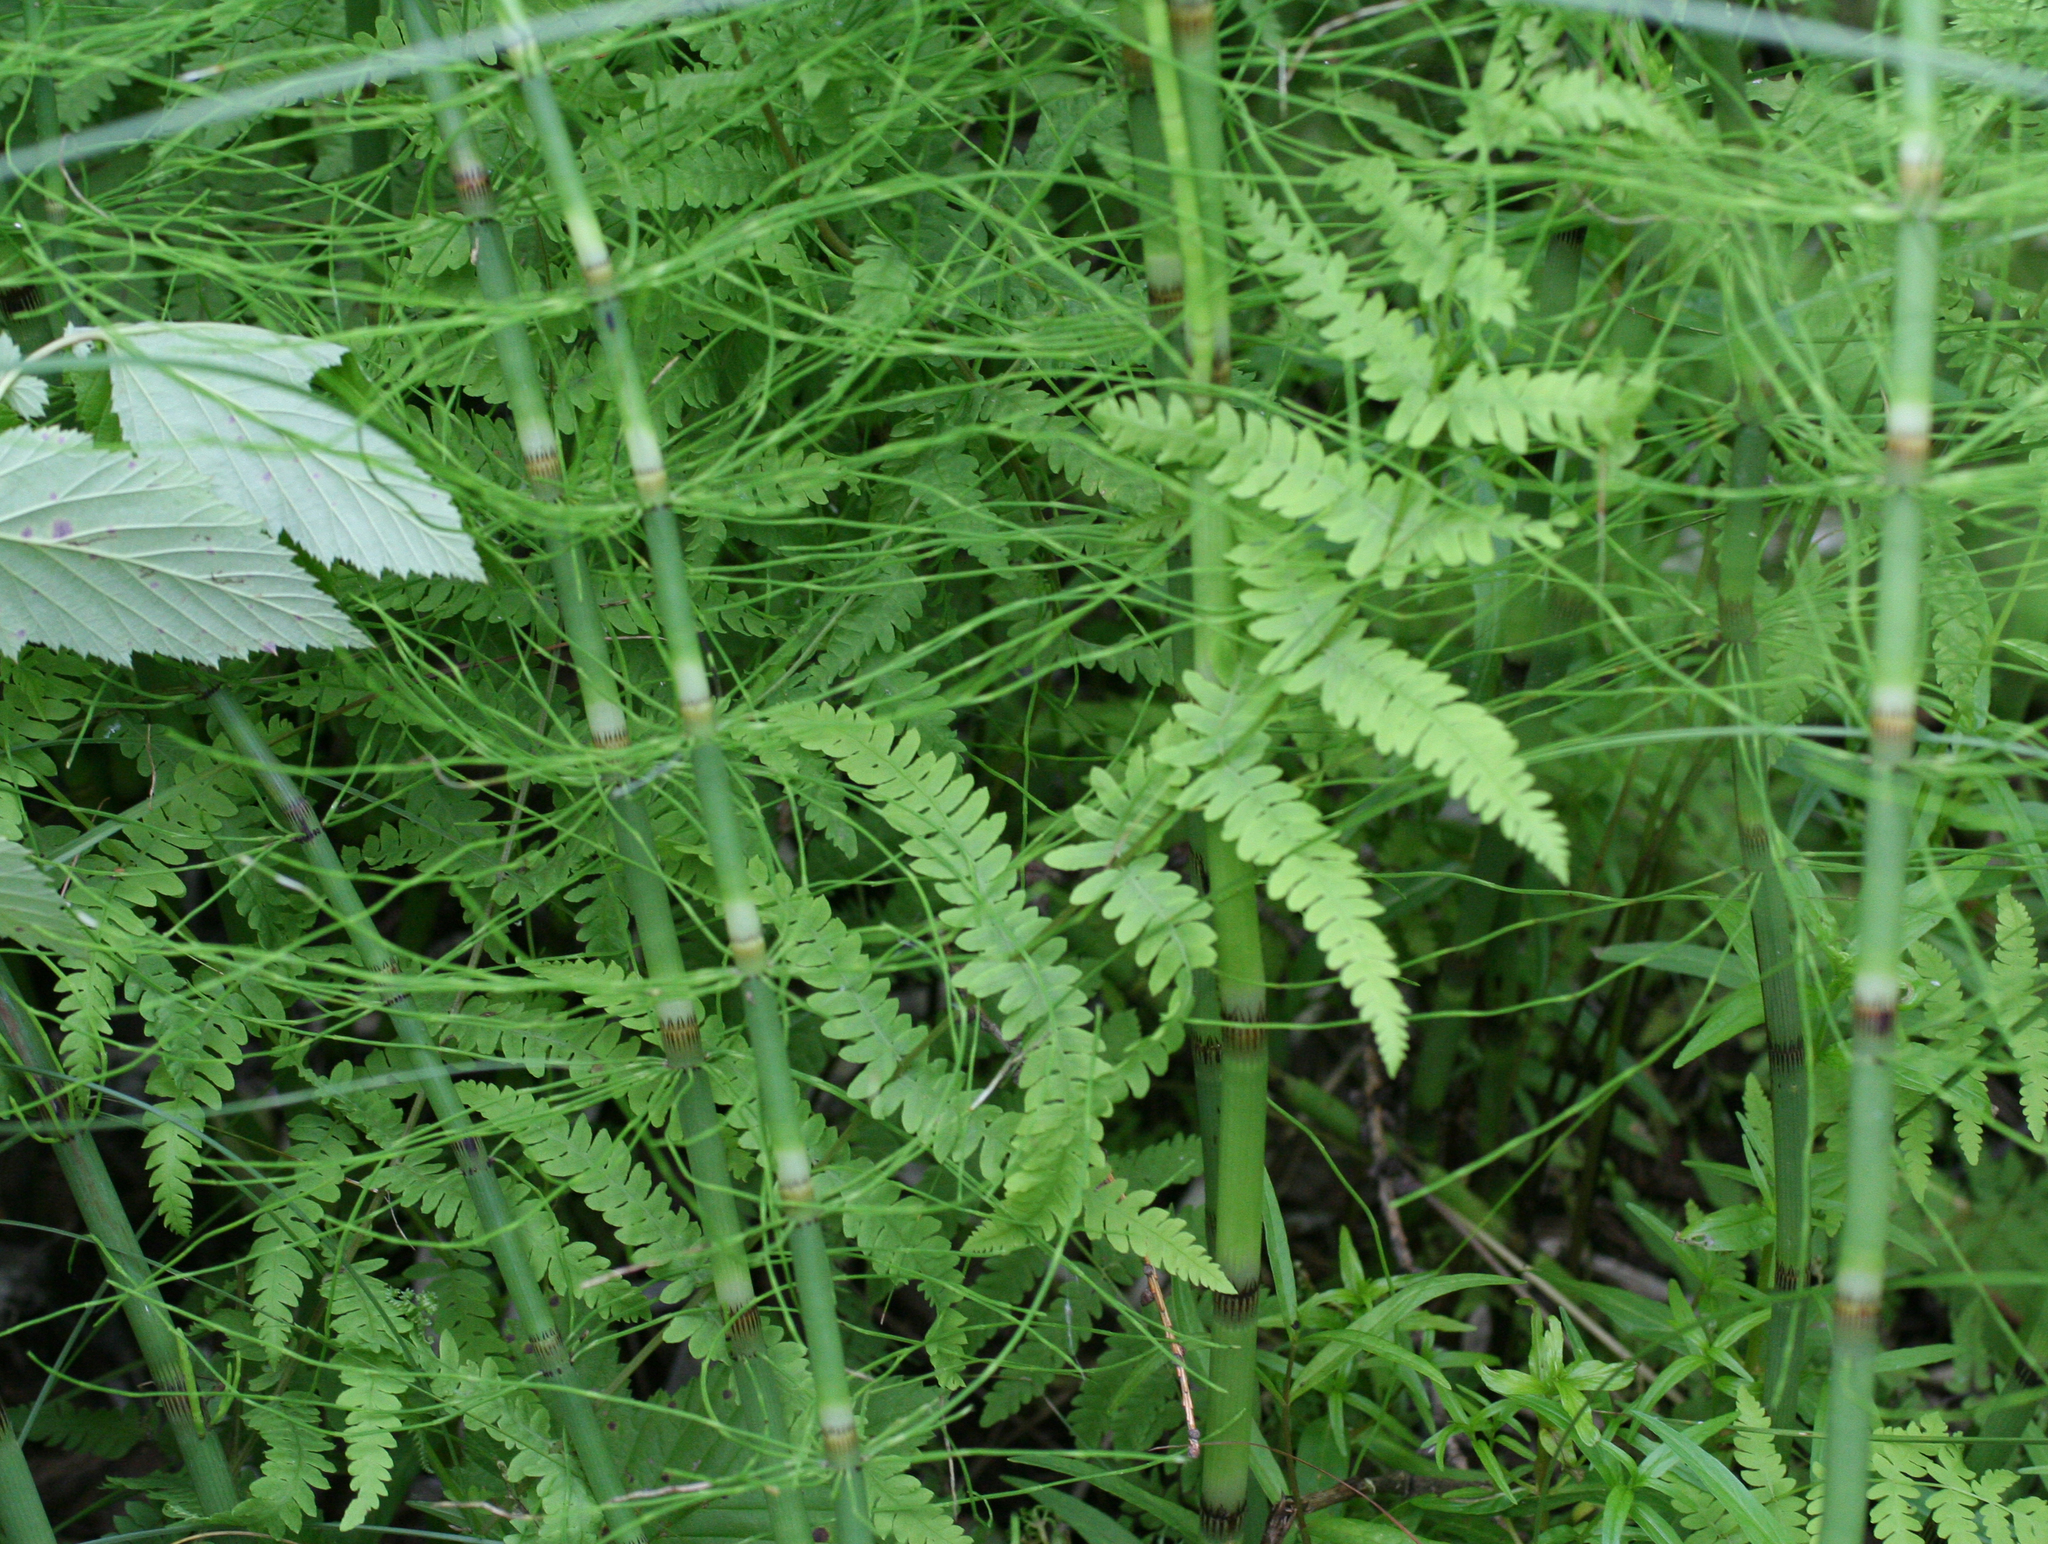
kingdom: Plantae
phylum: Tracheophyta
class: Polypodiopsida
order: Polypodiales
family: Thelypteridaceae
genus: Thelypteris
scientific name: Thelypteris palustris
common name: Marsh fern
